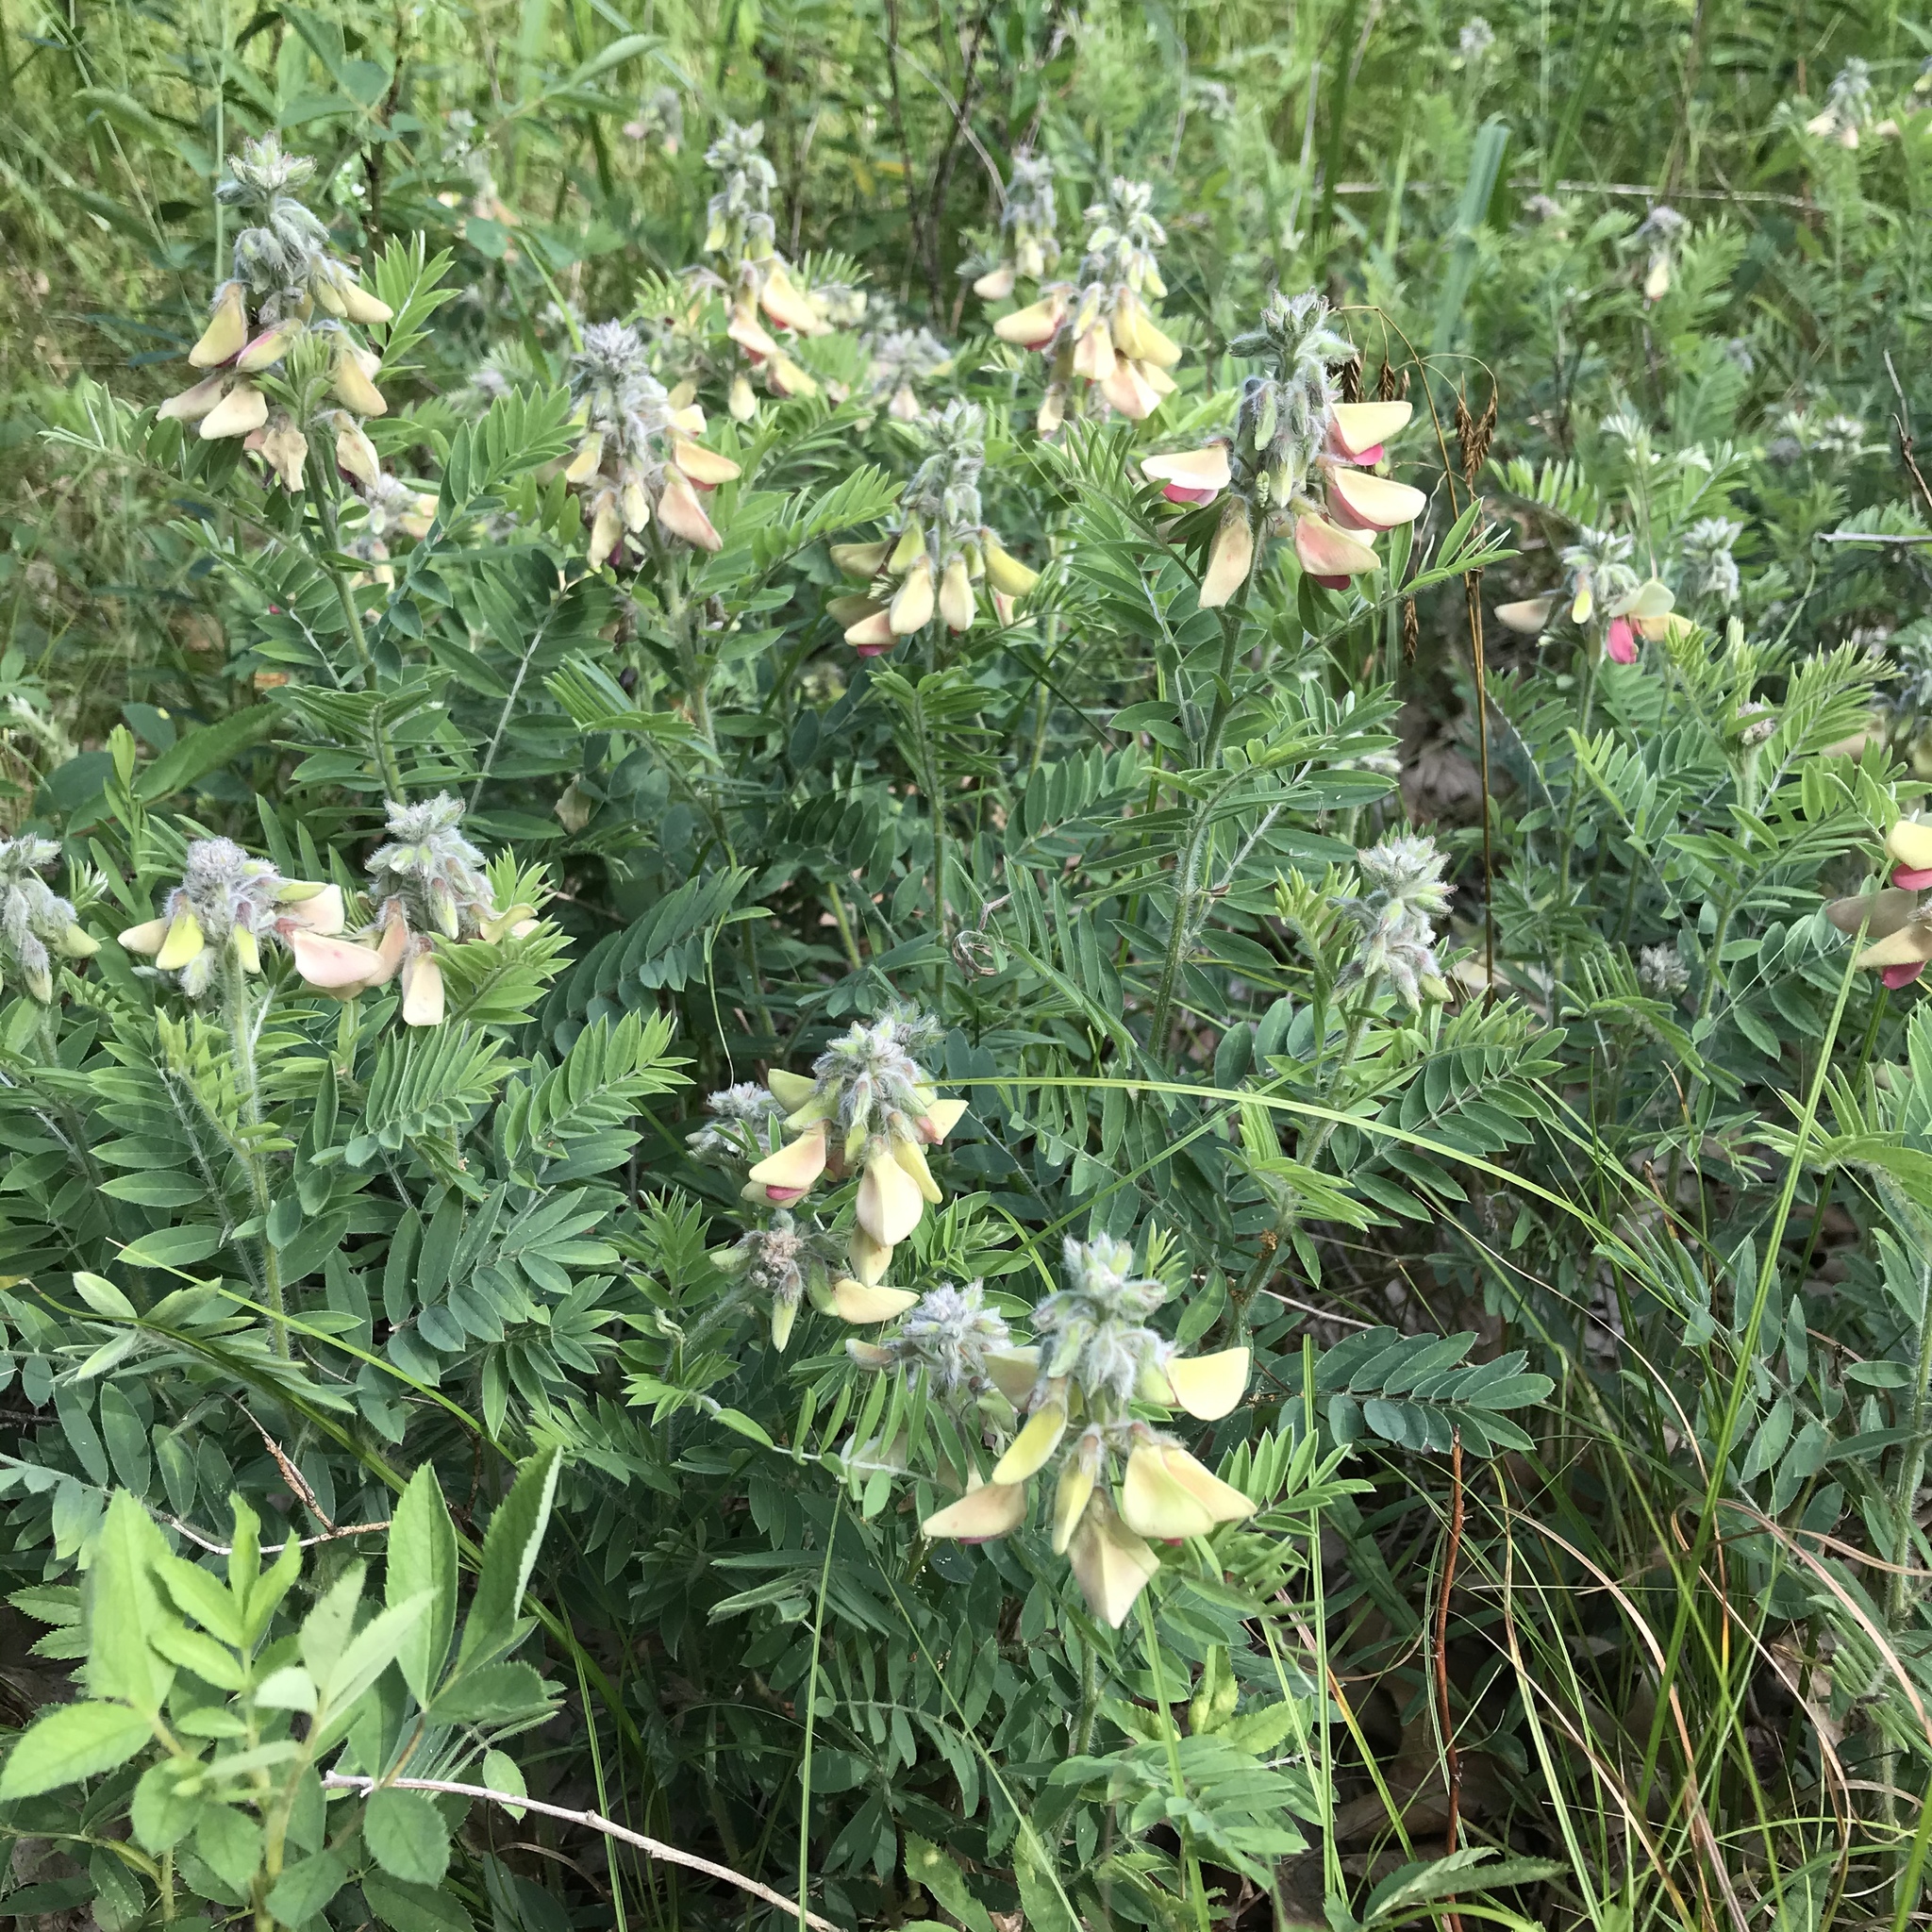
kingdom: Plantae
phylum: Tracheophyta
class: Magnoliopsida
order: Fabales
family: Fabaceae
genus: Tephrosia
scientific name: Tephrosia virginiana
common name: Rabbit-pea
